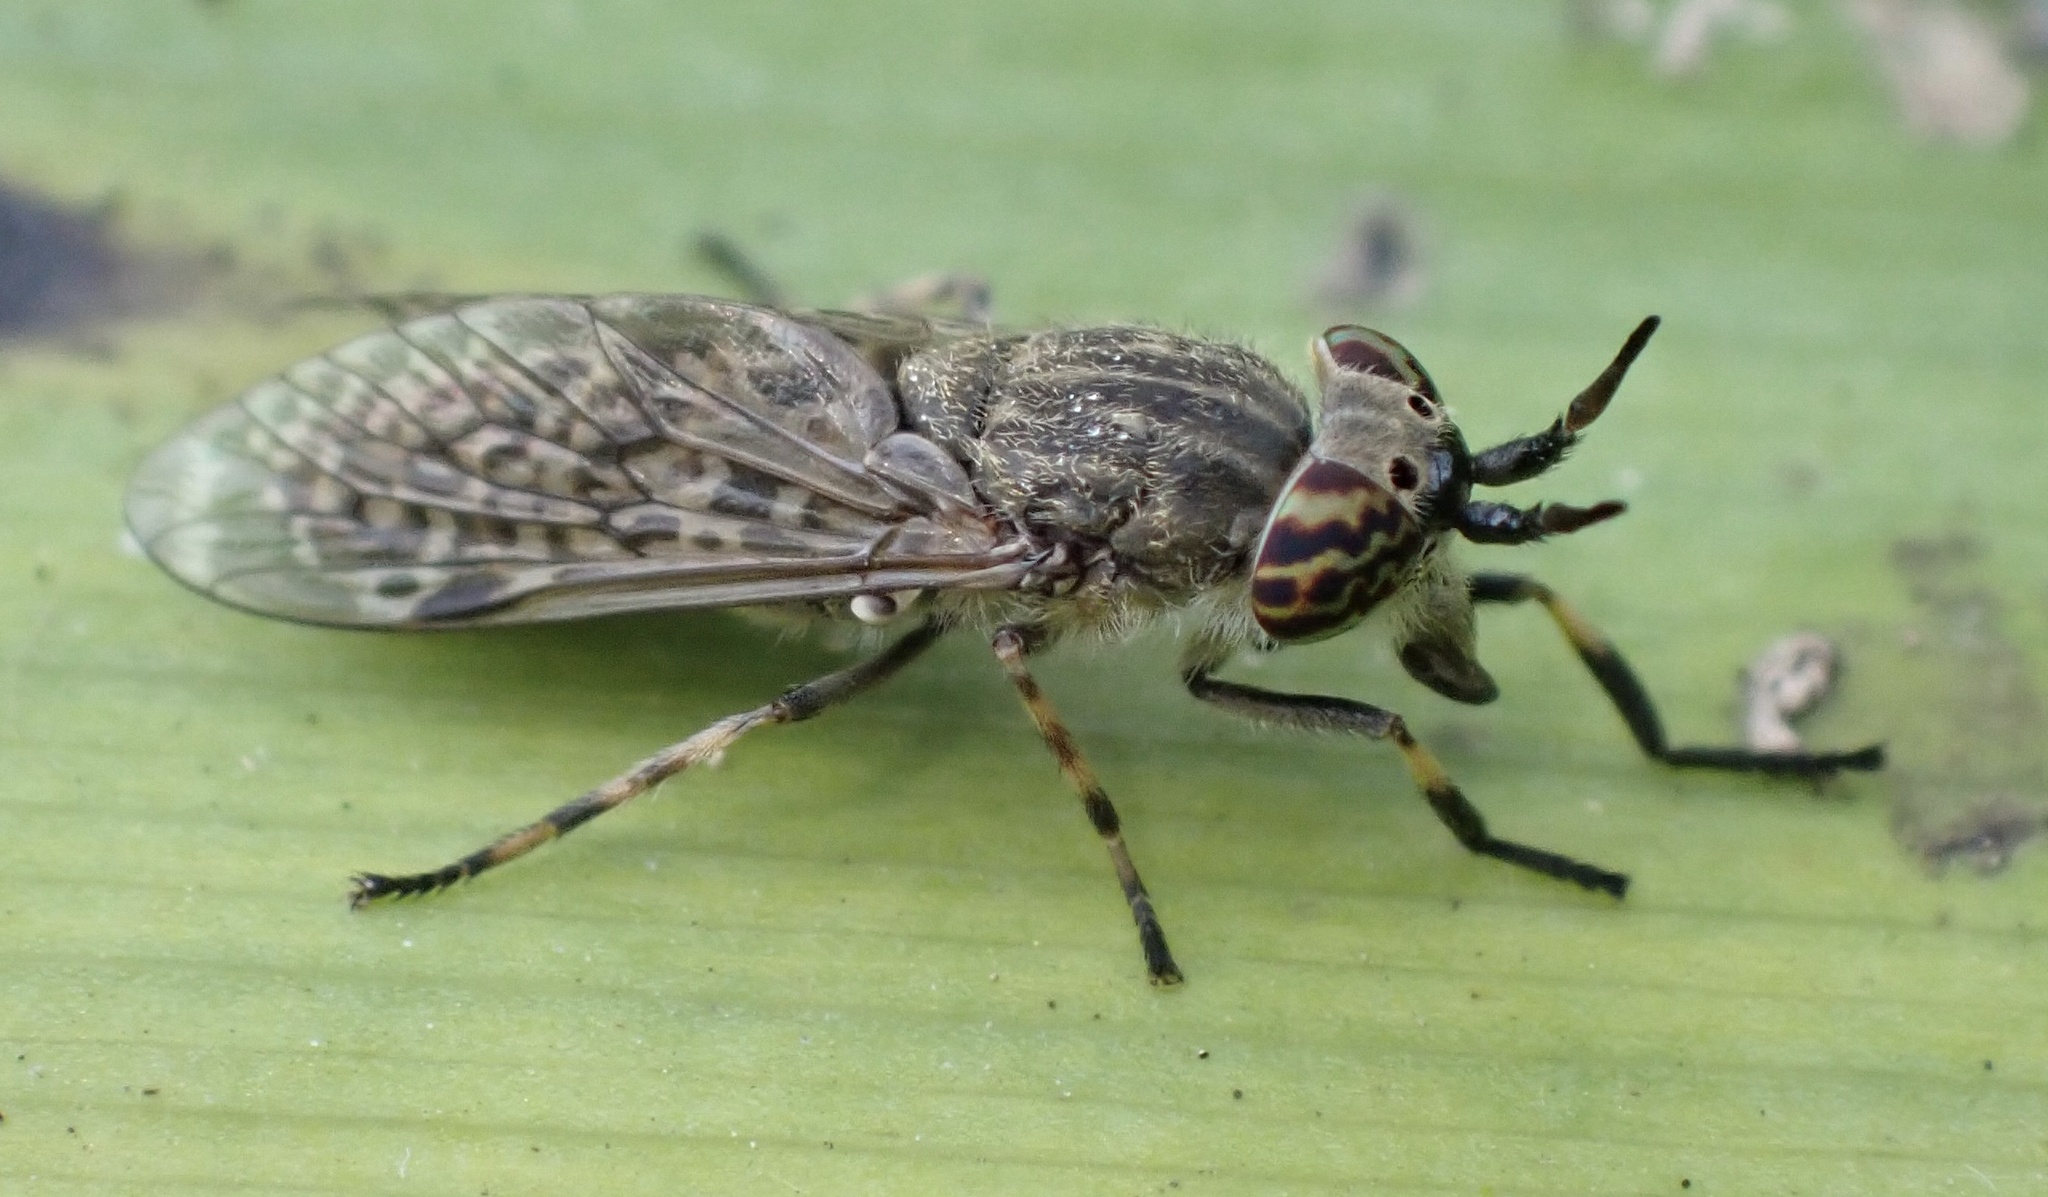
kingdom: Animalia
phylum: Arthropoda
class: Insecta
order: Diptera
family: Tabanidae
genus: Haematopota
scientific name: Haematopota pluvialis
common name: Common horse fly
